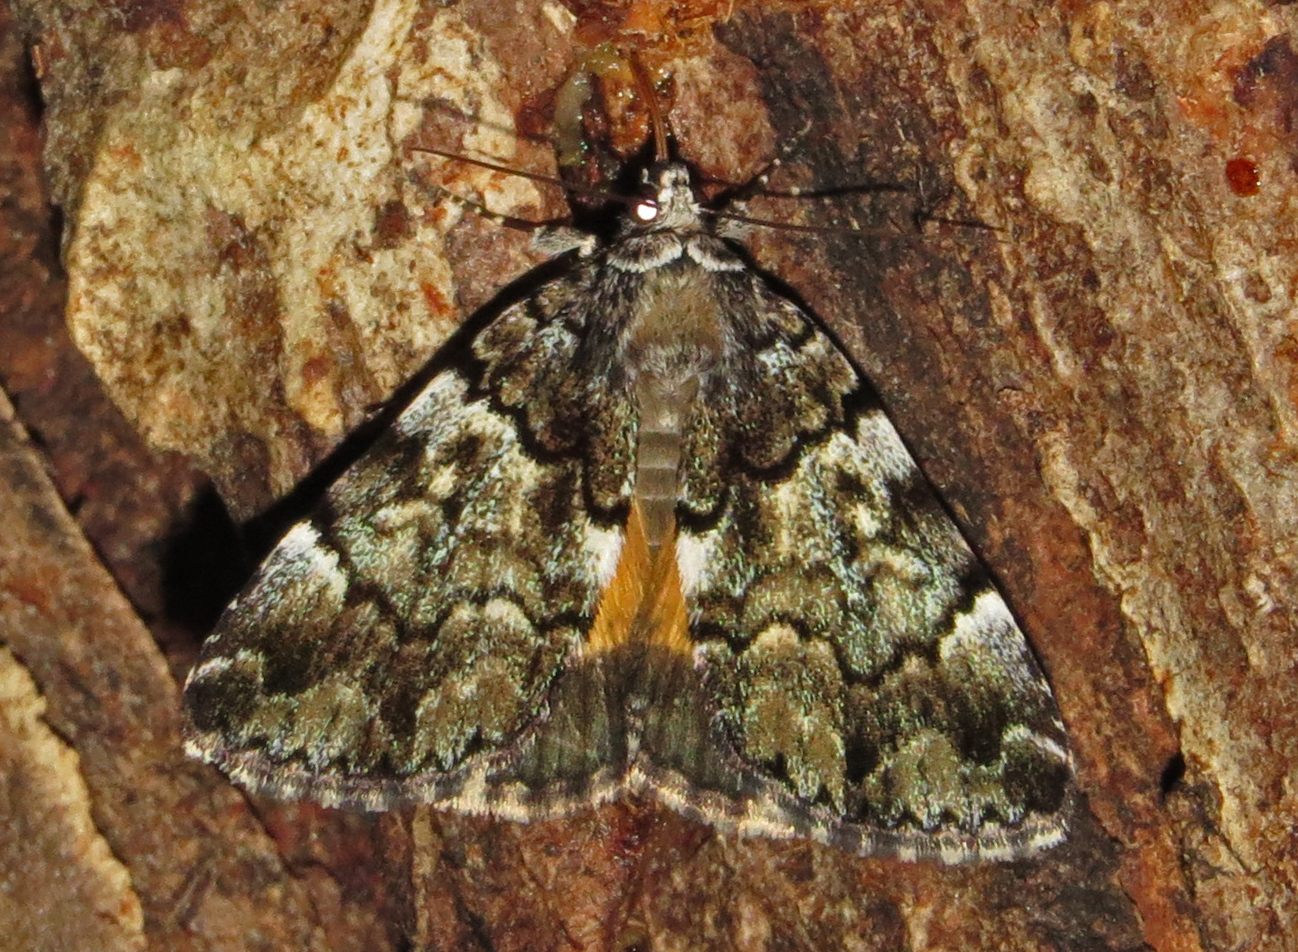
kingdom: Animalia
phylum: Arthropoda
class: Insecta
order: Lepidoptera
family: Erebidae
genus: Allotria
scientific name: Allotria elonympha
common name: False underwing
